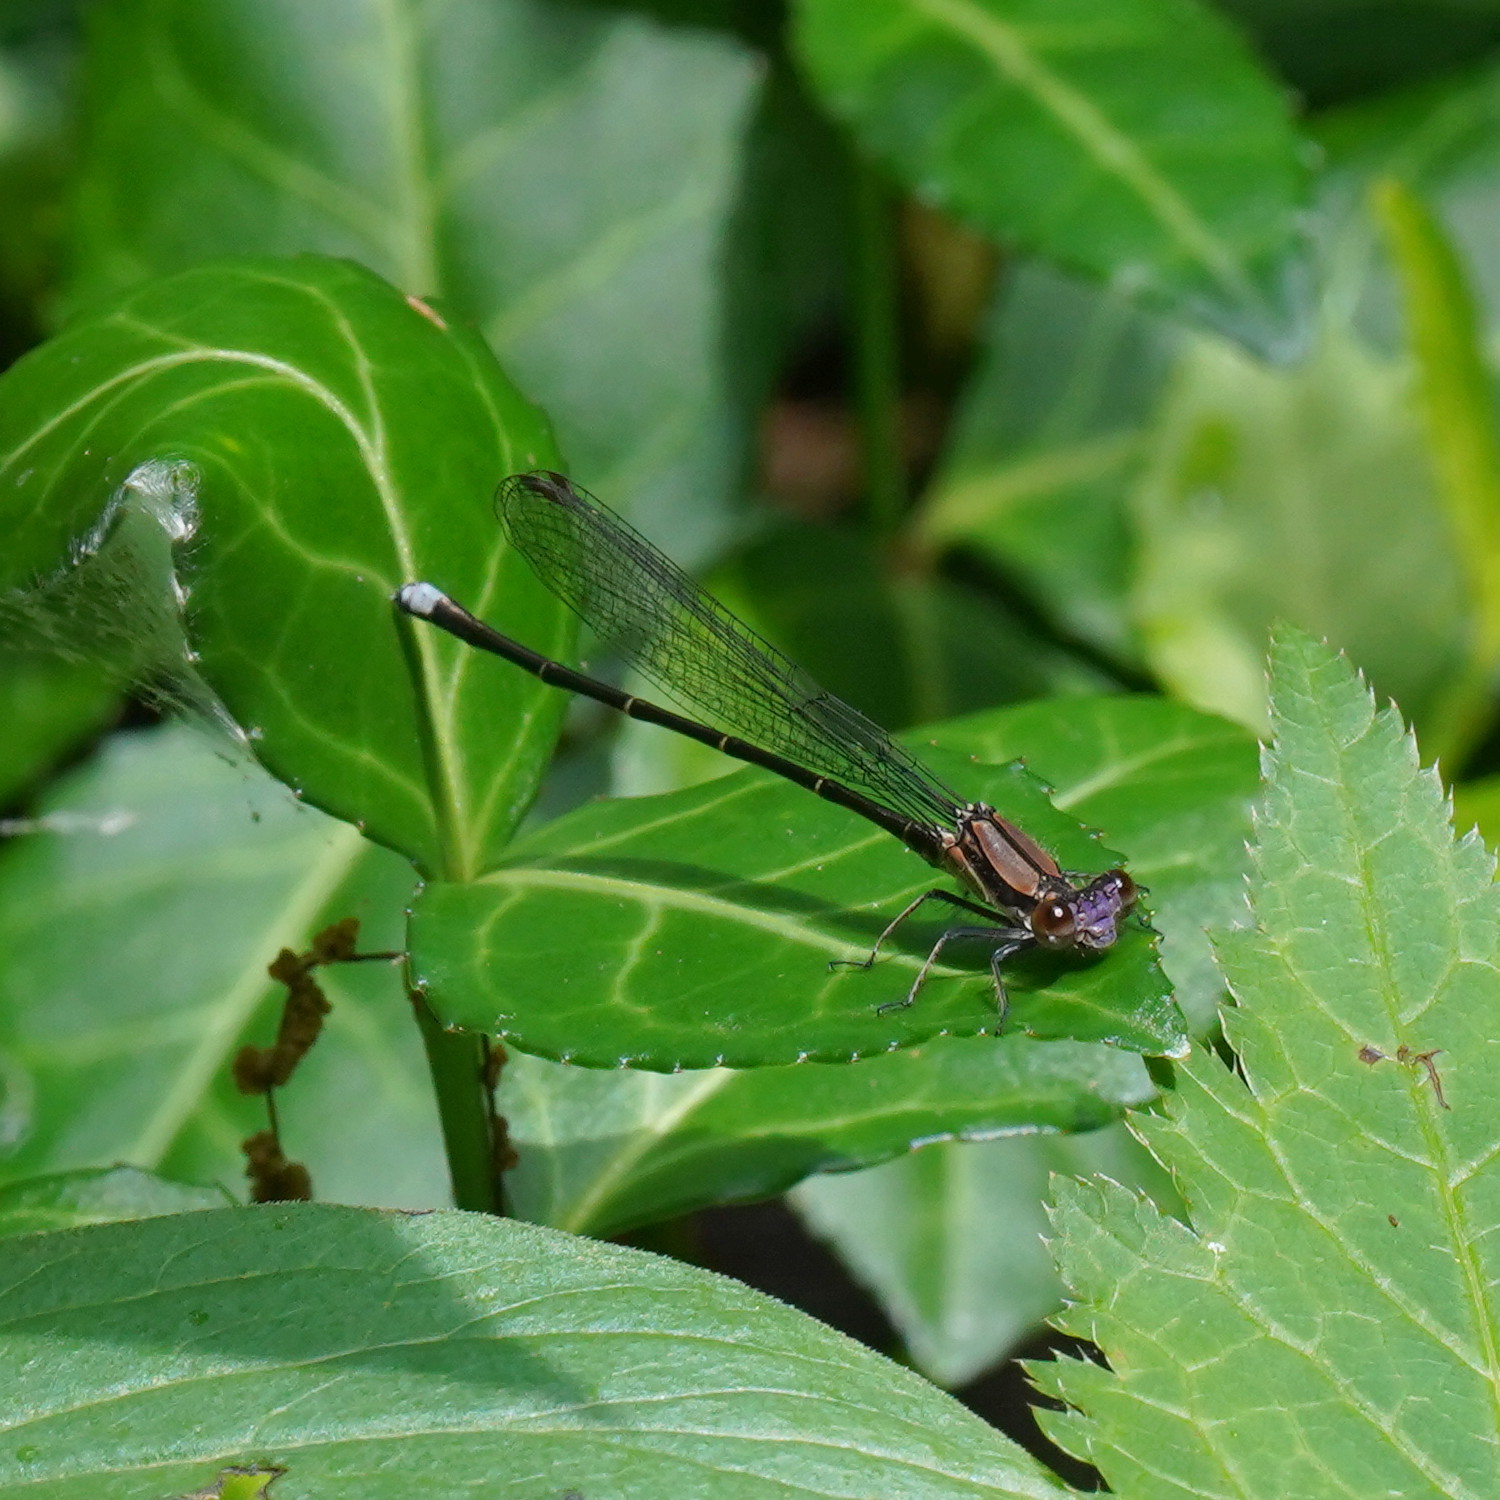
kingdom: Animalia
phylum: Arthropoda
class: Insecta
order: Odonata
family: Coenagrionidae
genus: Argia
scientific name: Argia tibialis
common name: Blue-tipped dancer
